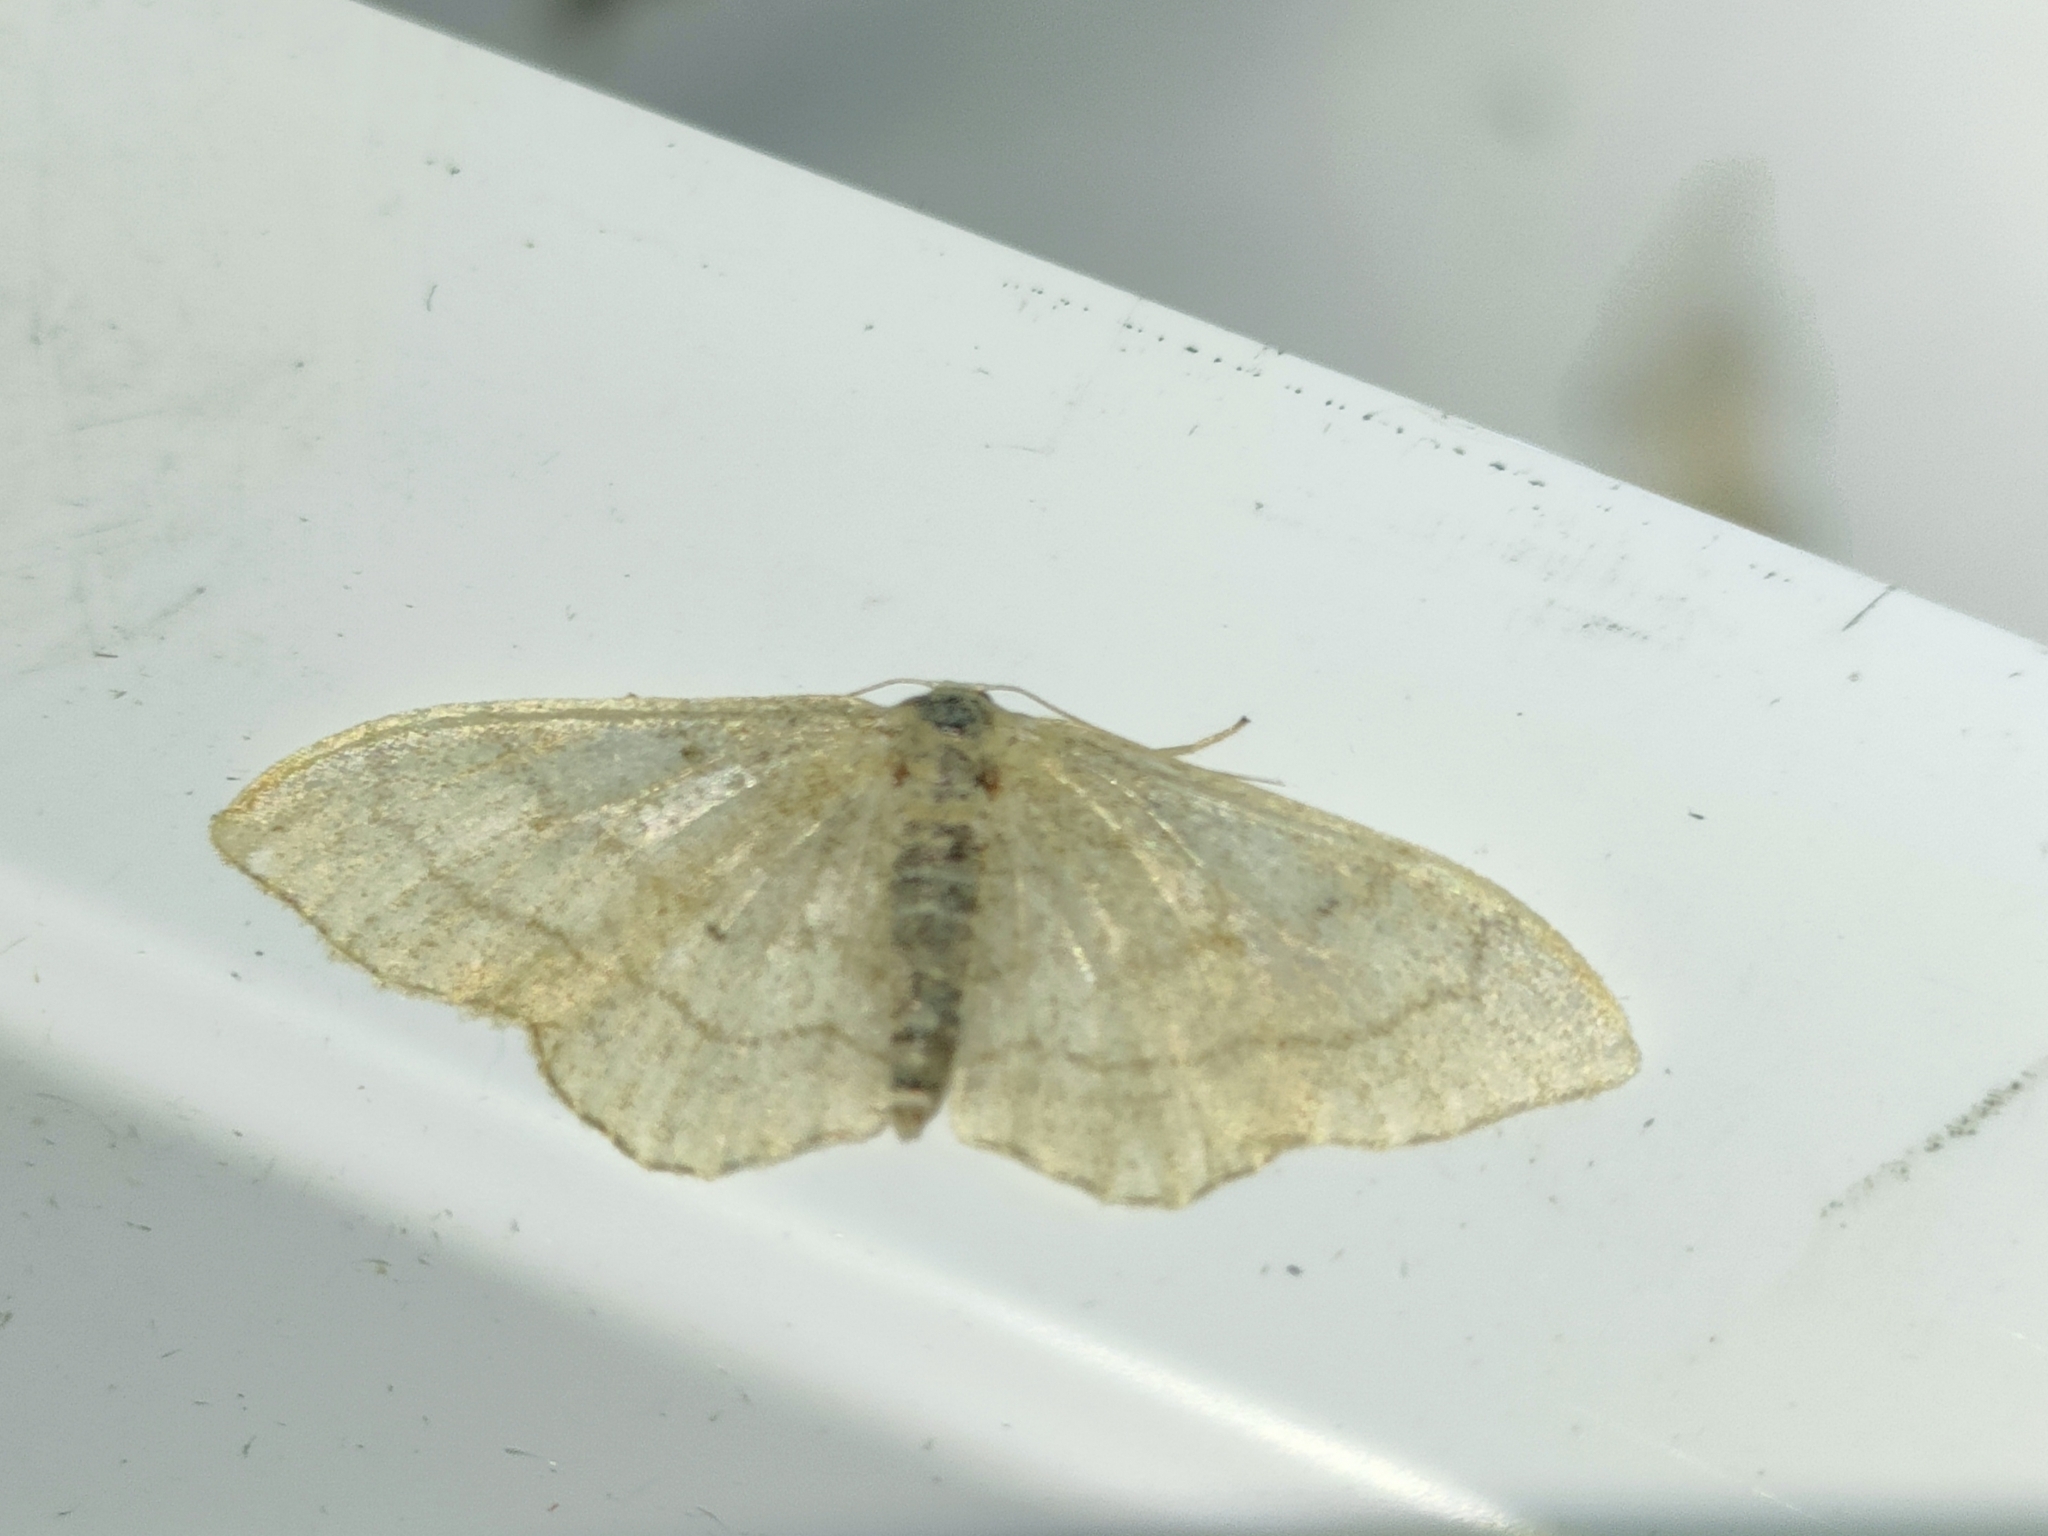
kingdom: Animalia
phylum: Arthropoda
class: Insecta
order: Lepidoptera
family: Geometridae
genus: Idaea
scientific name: Idaea aversata
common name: Riband wave
